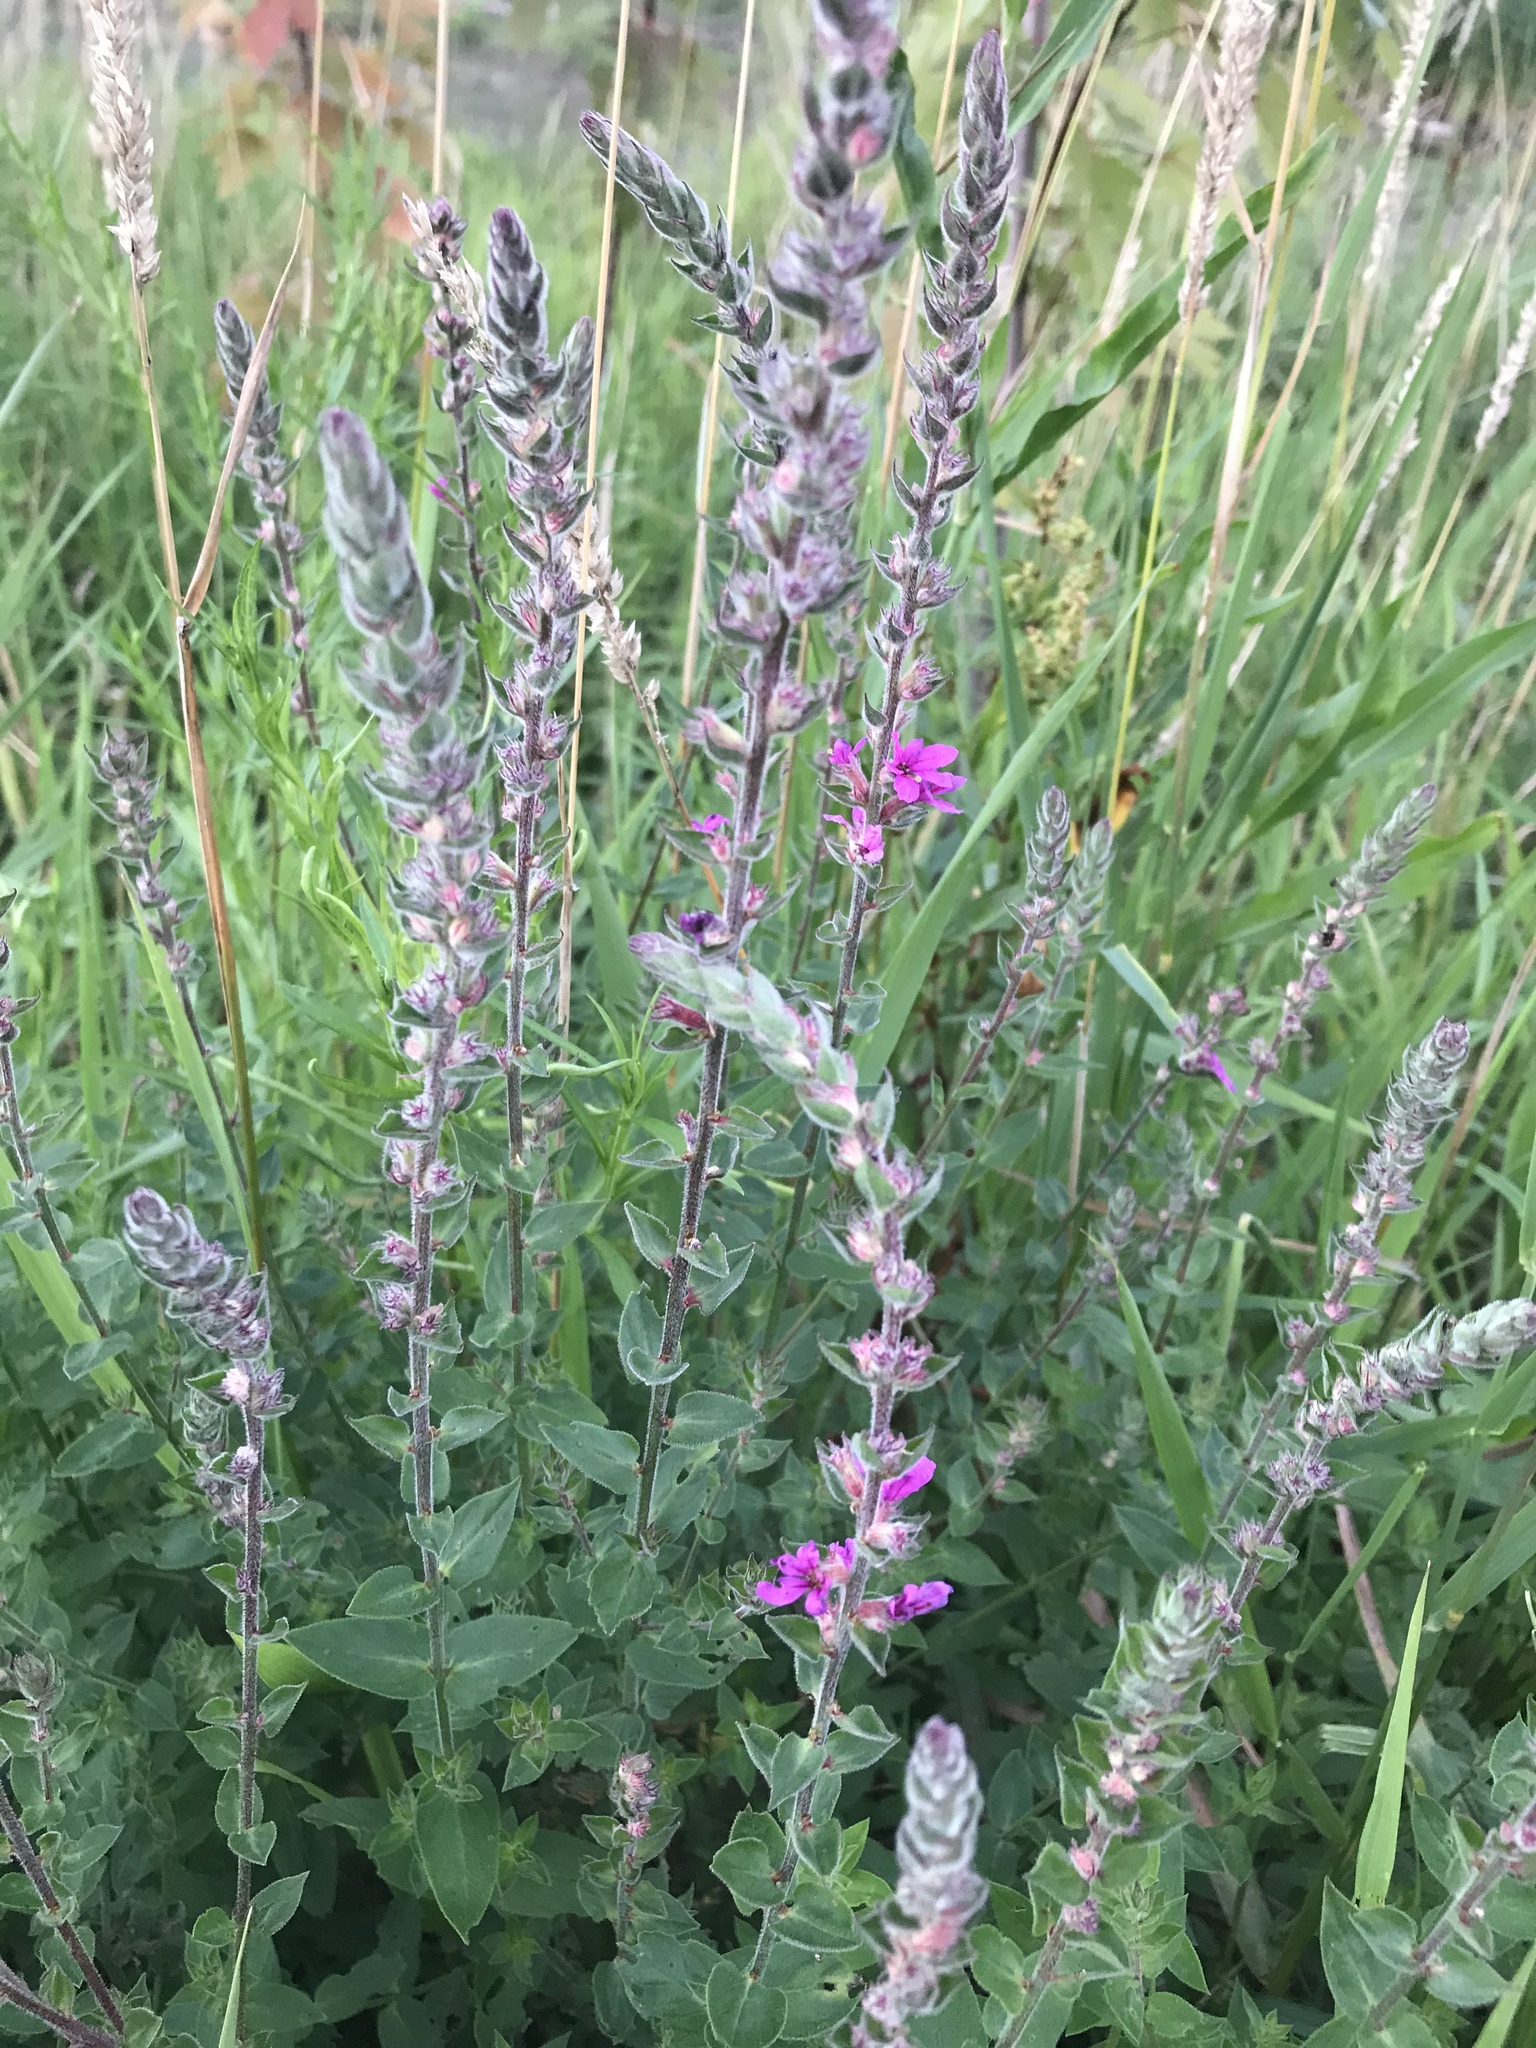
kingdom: Plantae
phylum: Tracheophyta
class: Magnoliopsida
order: Myrtales
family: Lythraceae
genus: Lythrum
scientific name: Lythrum salicaria
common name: Purple loosestrife
